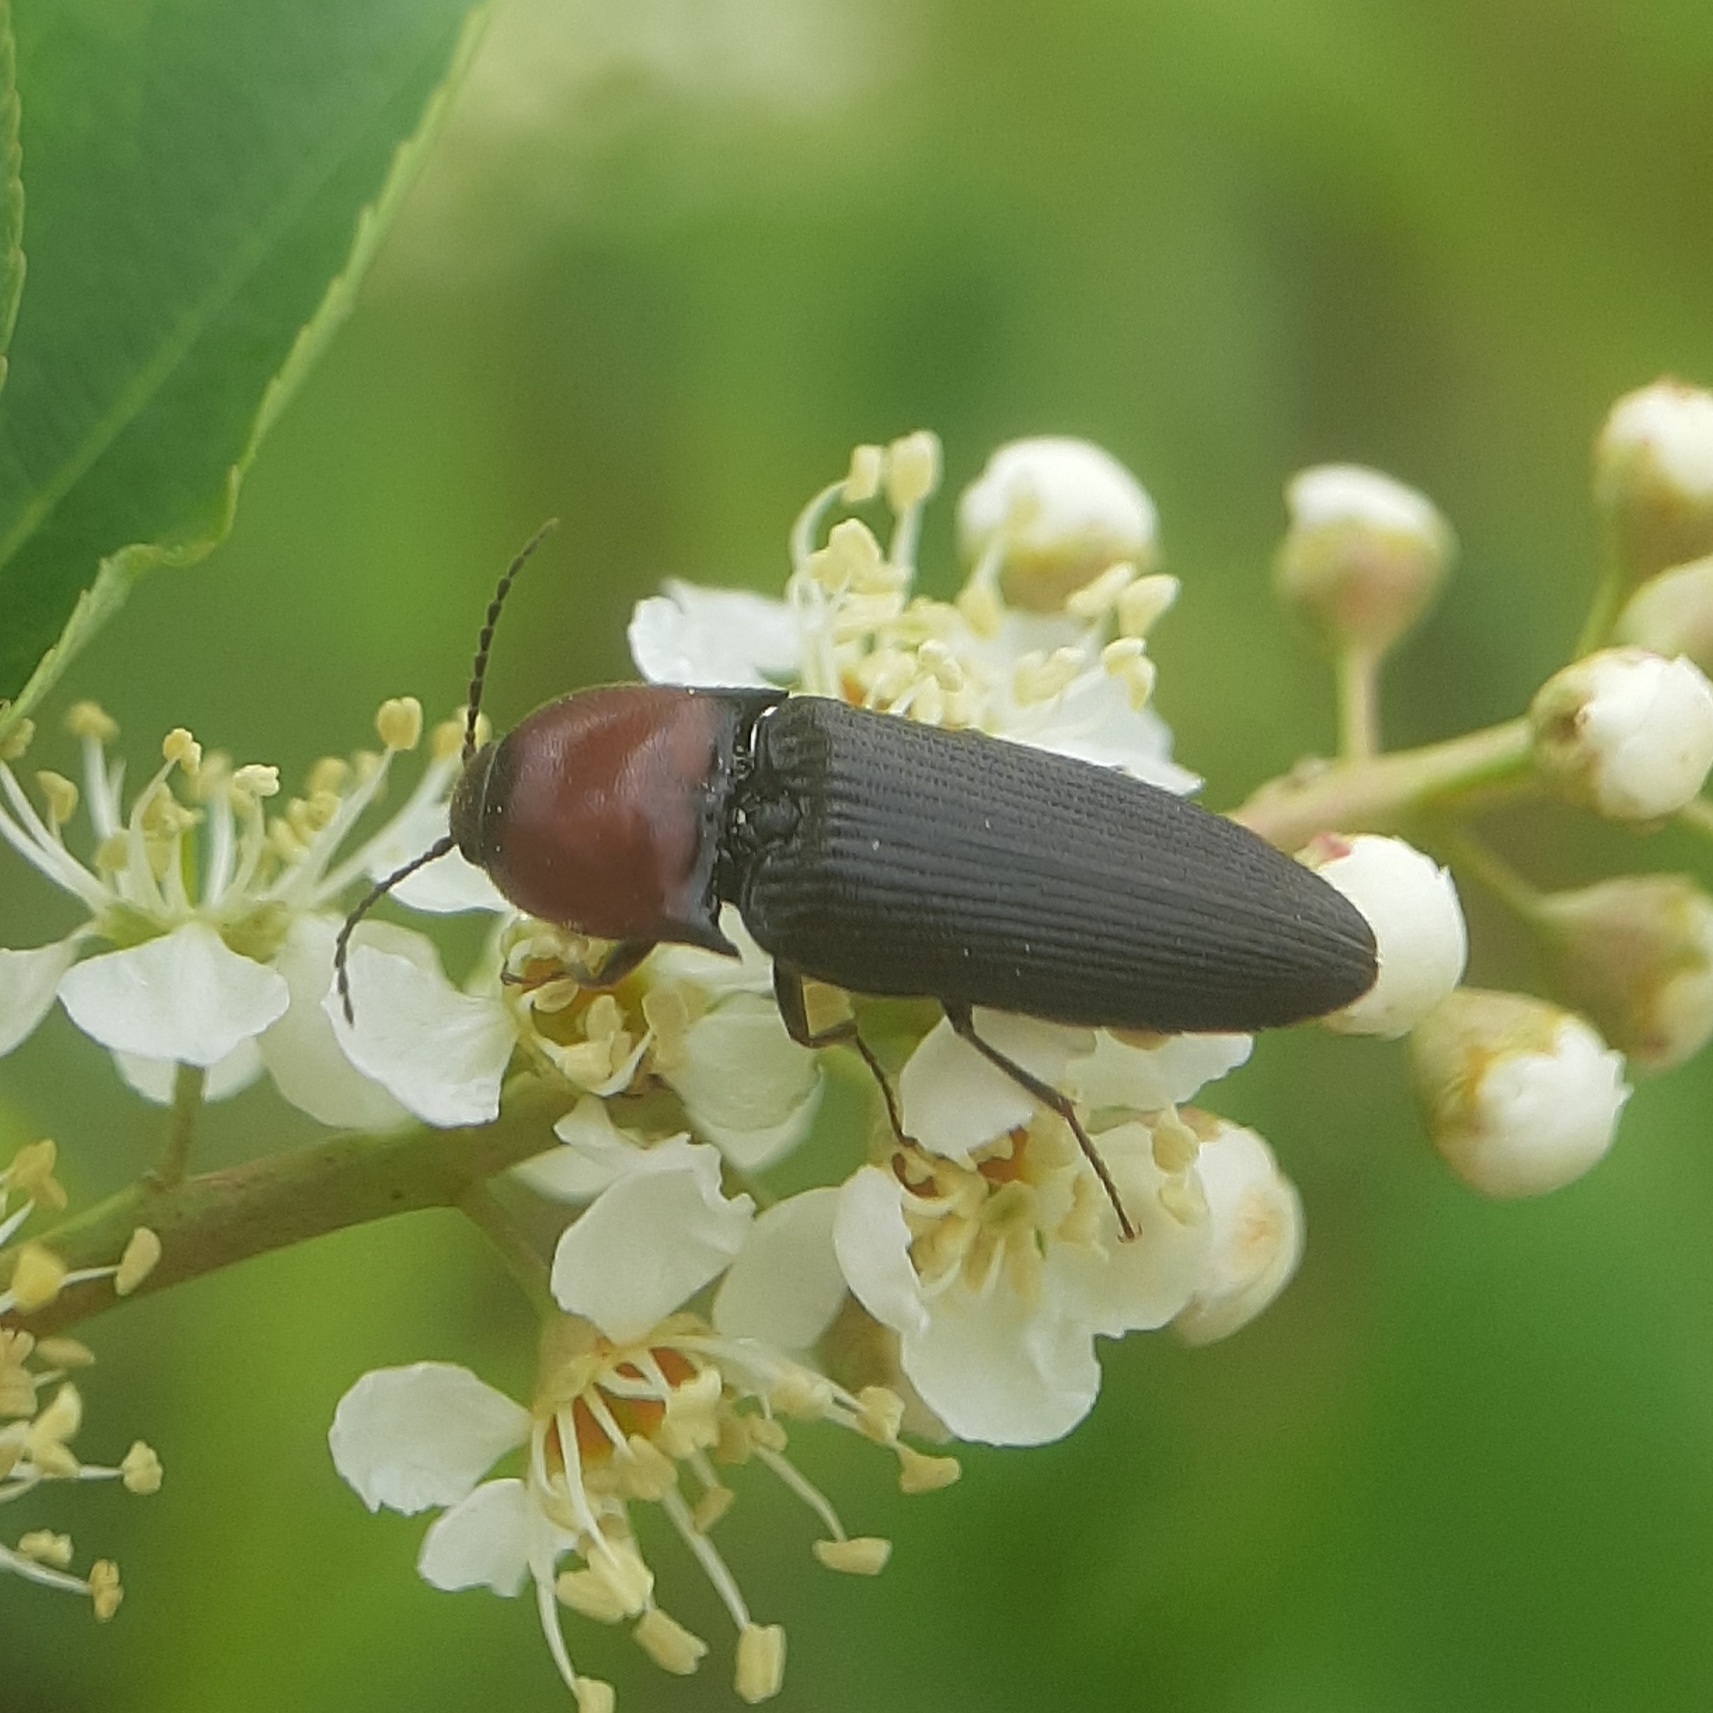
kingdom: Animalia
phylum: Arthropoda
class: Insecta
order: Coleoptera
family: Elateridae
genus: Ampedus
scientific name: Ampedus rubricollis
